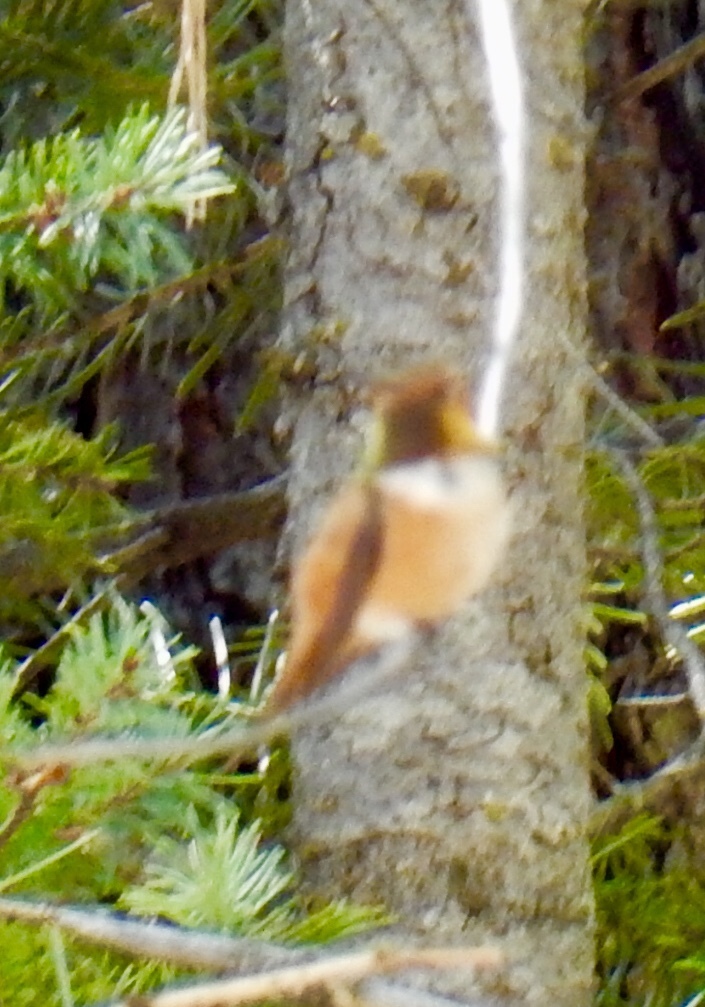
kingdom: Animalia
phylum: Chordata
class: Aves
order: Apodiformes
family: Trochilidae
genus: Selasphorus
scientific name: Selasphorus rufus
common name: Rufous hummingbird
